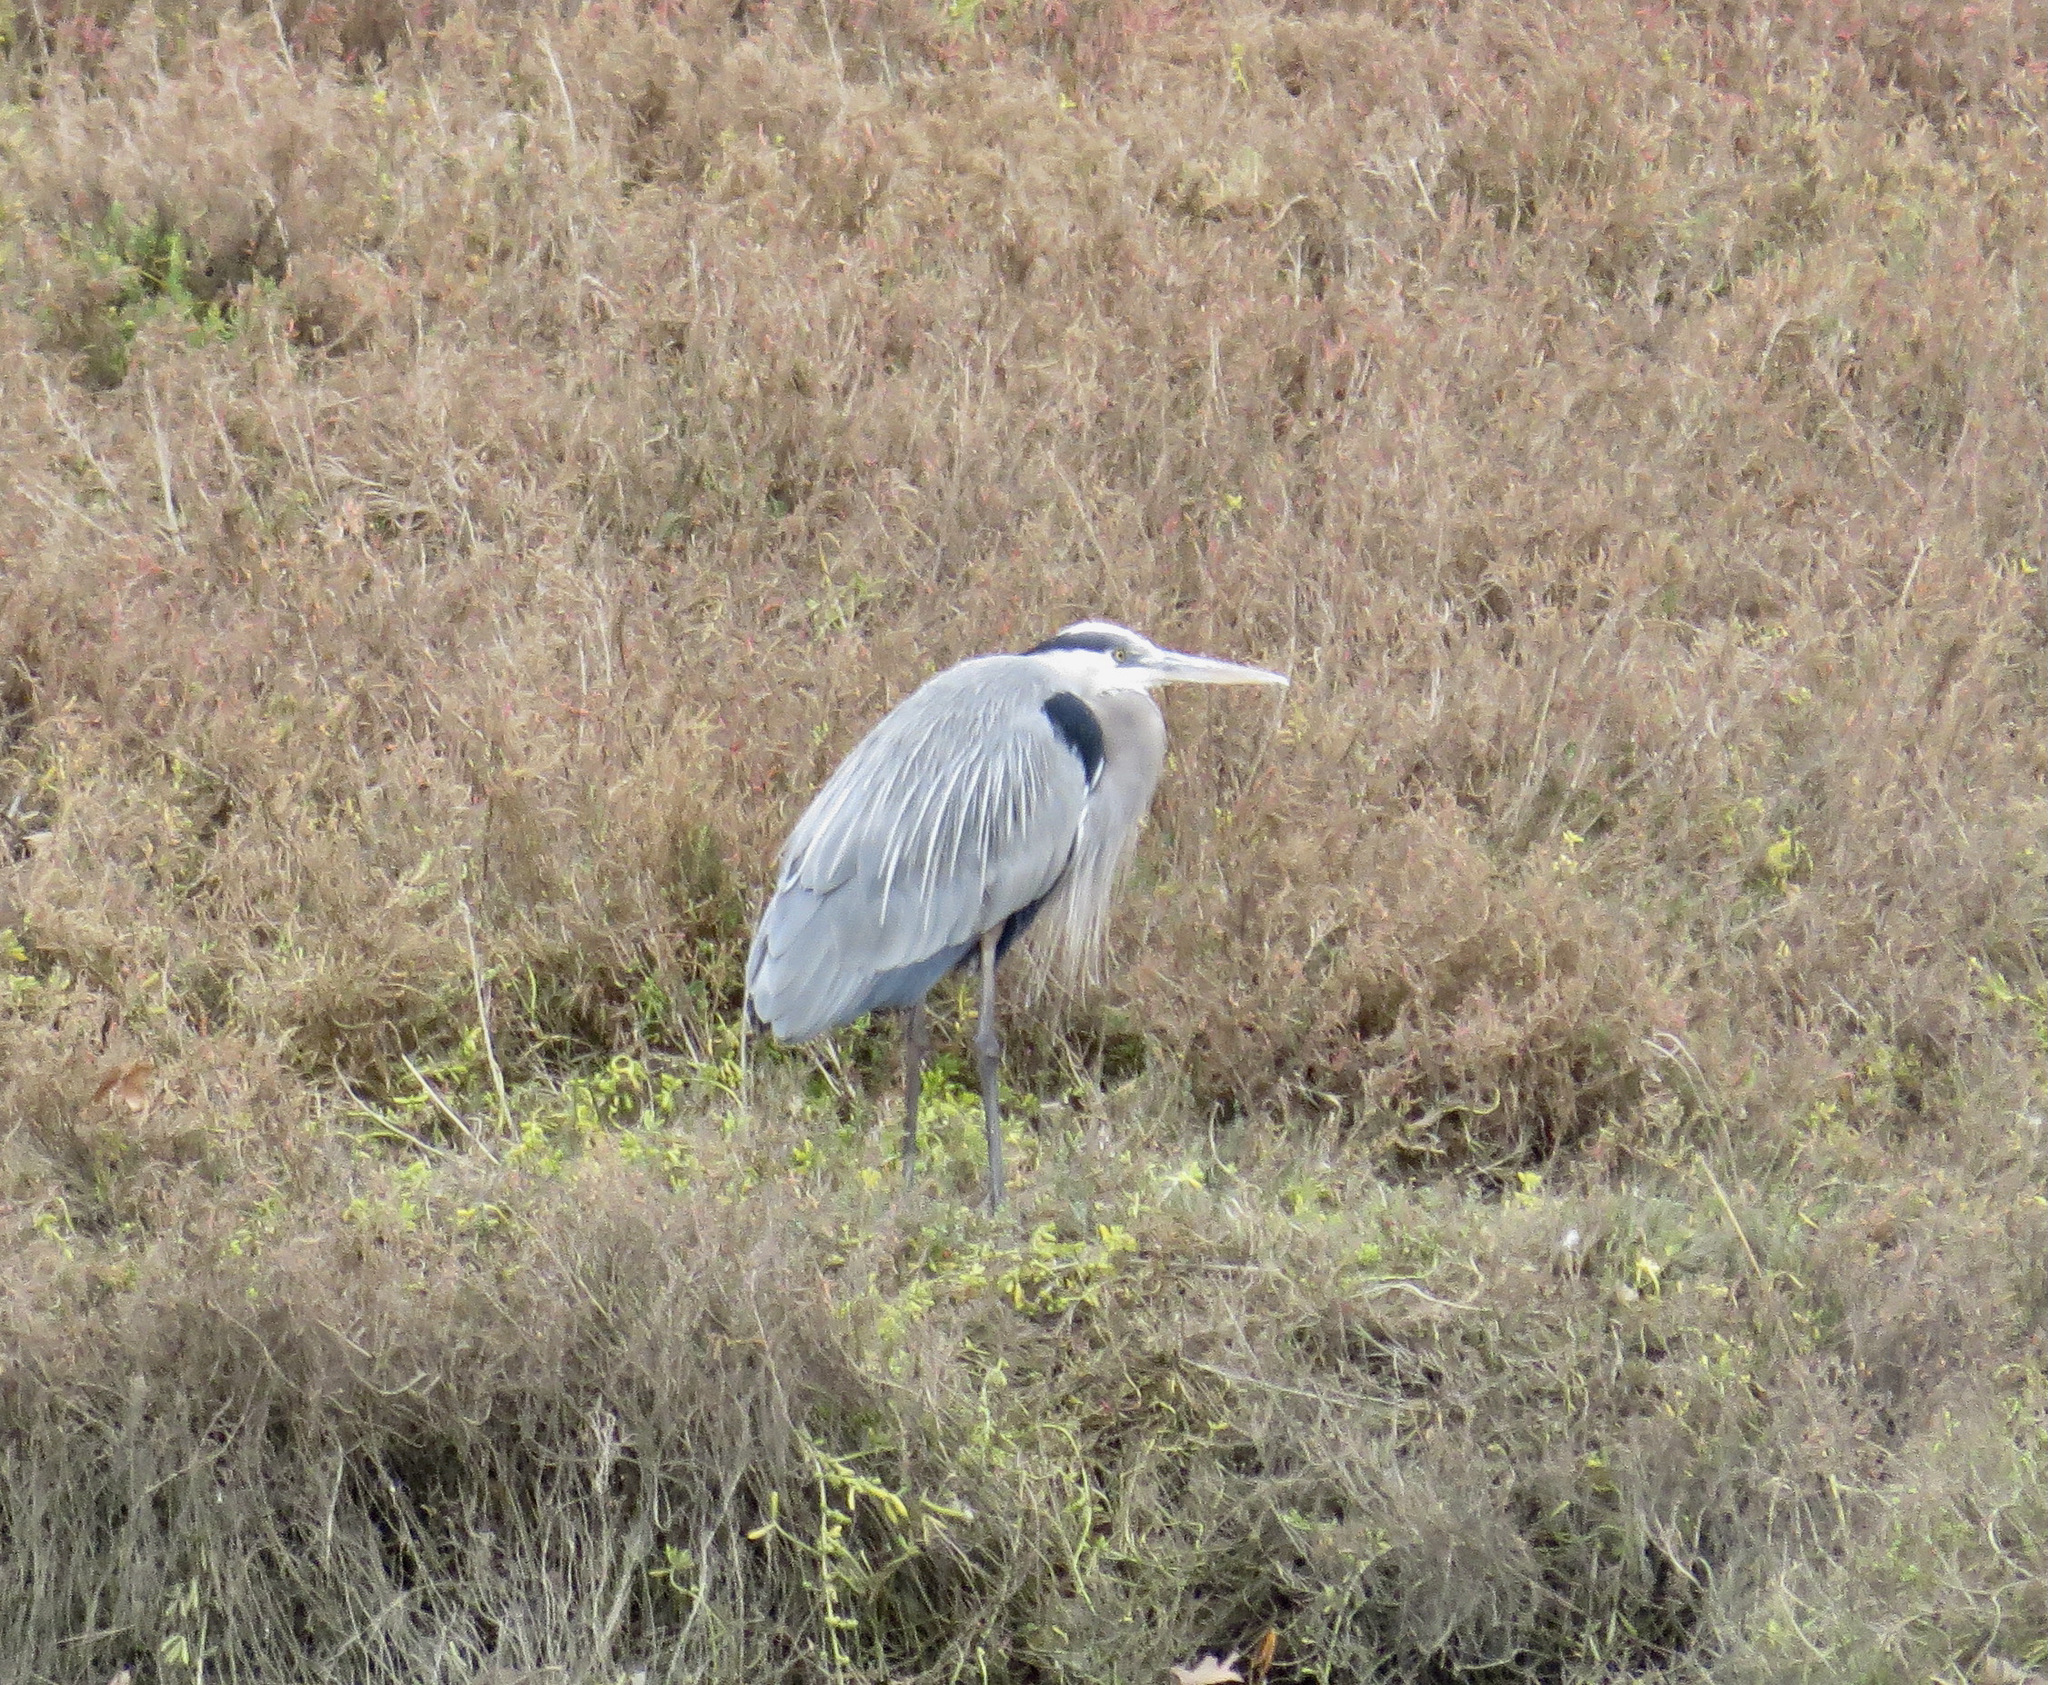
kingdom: Animalia
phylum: Chordata
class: Aves
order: Pelecaniformes
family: Ardeidae
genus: Ardea
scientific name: Ardea herodias
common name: Great blue heron
